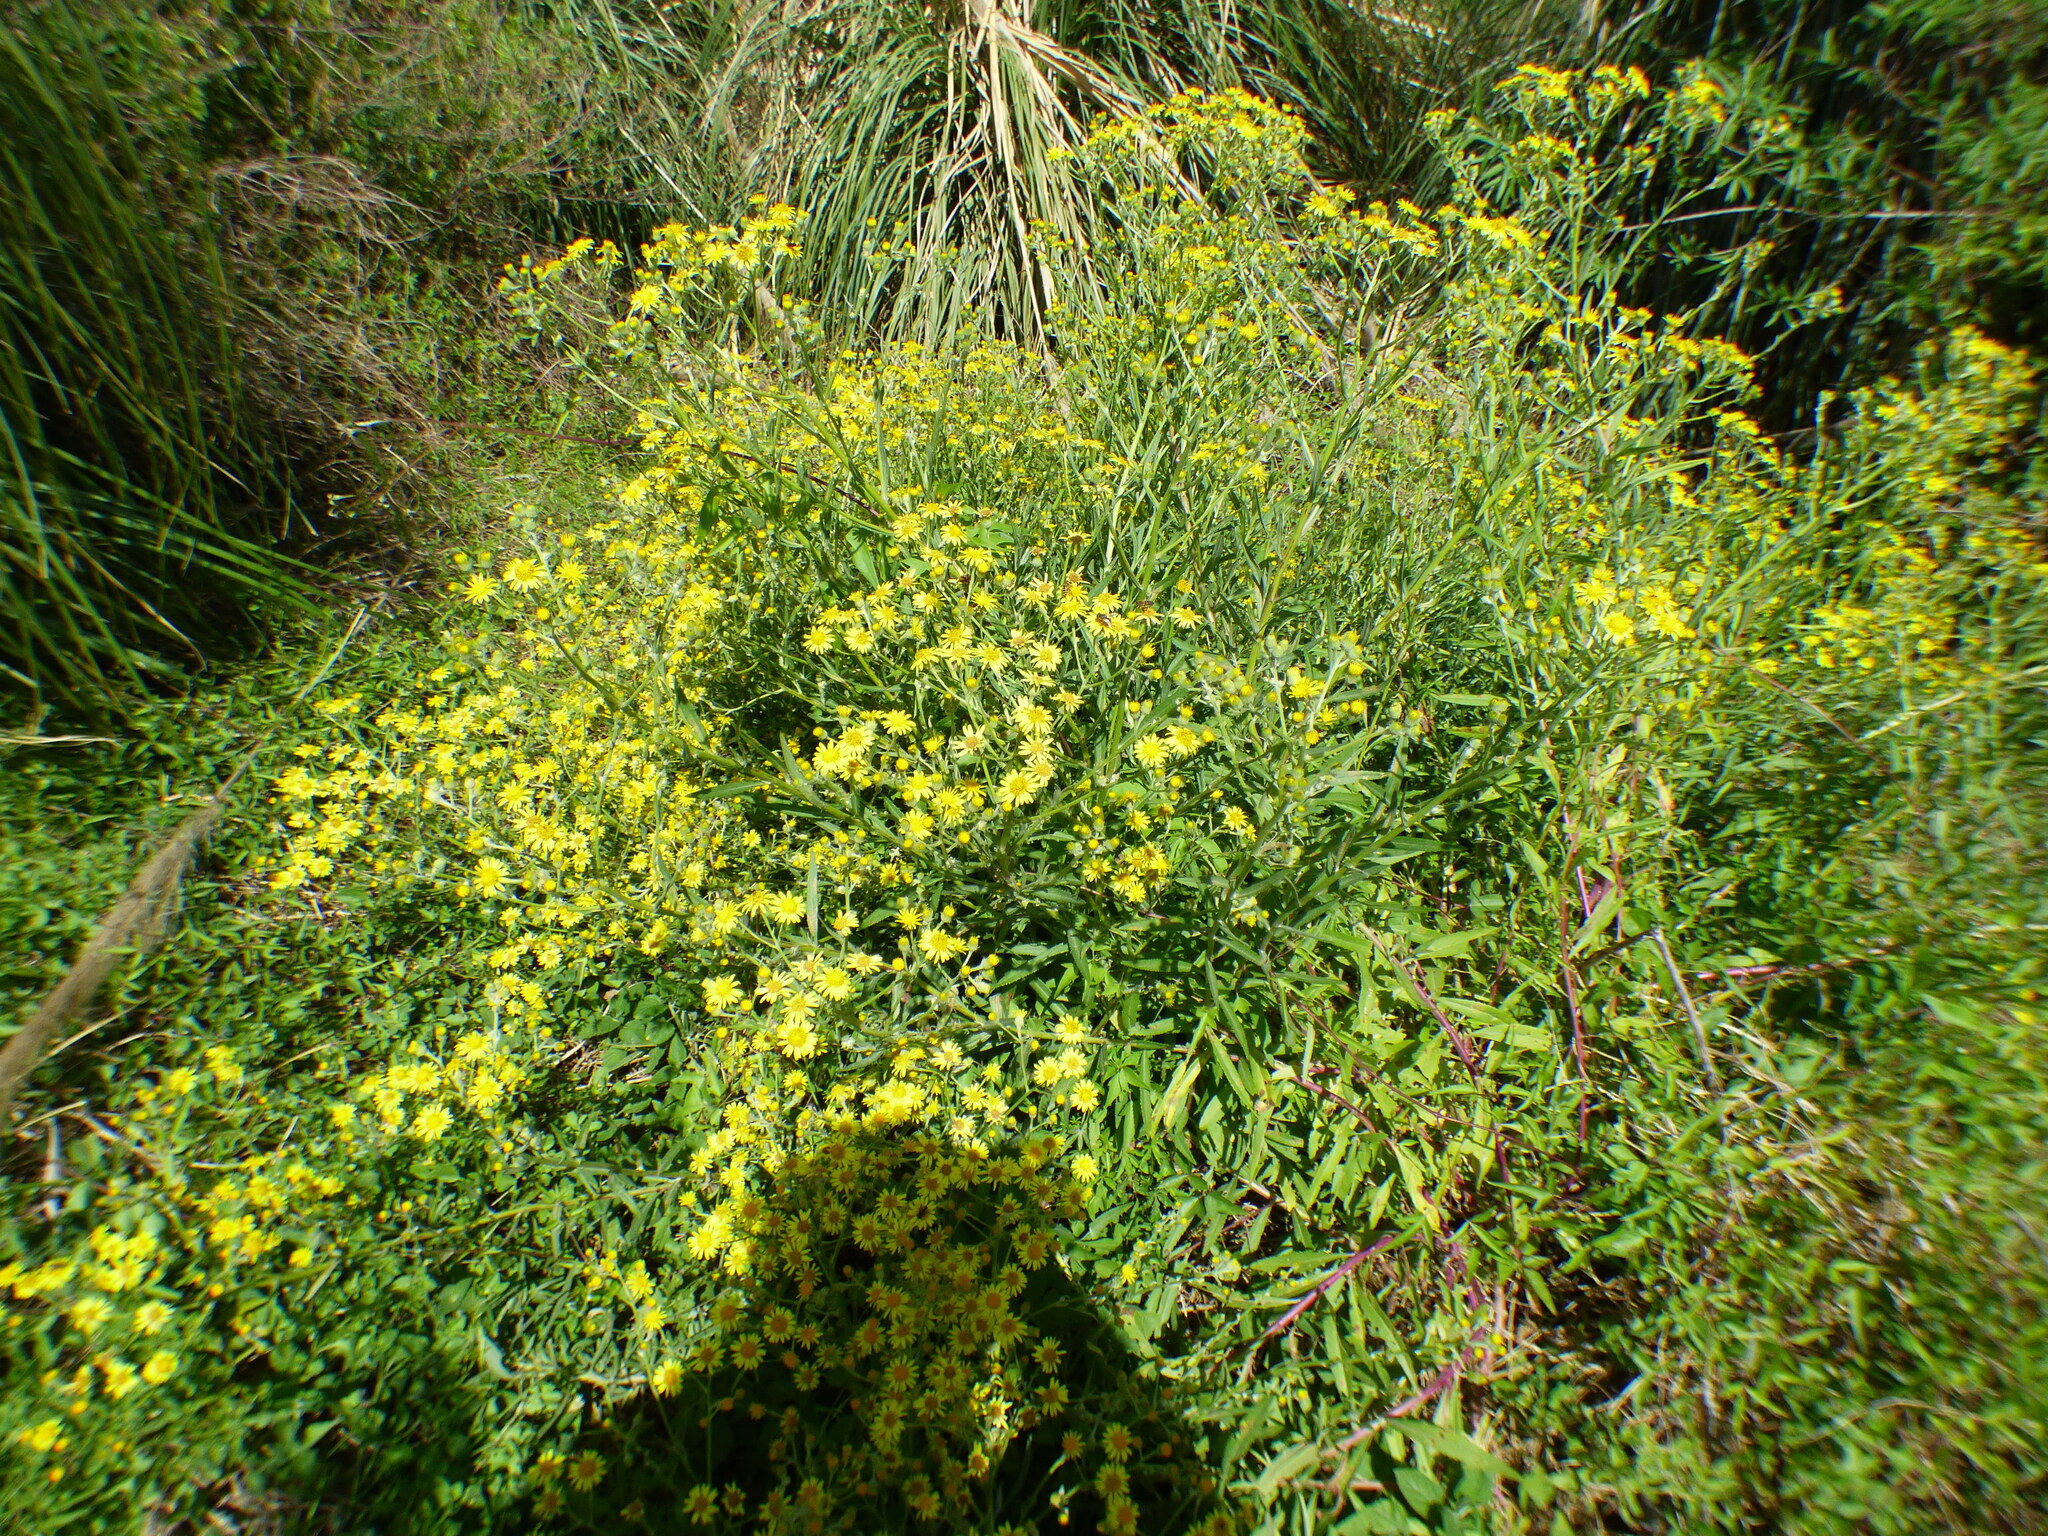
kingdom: Plantae
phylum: Tracheophyta
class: Magnoliopsida
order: Asterales
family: Asteraceae
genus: Senecio
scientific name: Senecio pterophorus
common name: Shoddy ragwort
